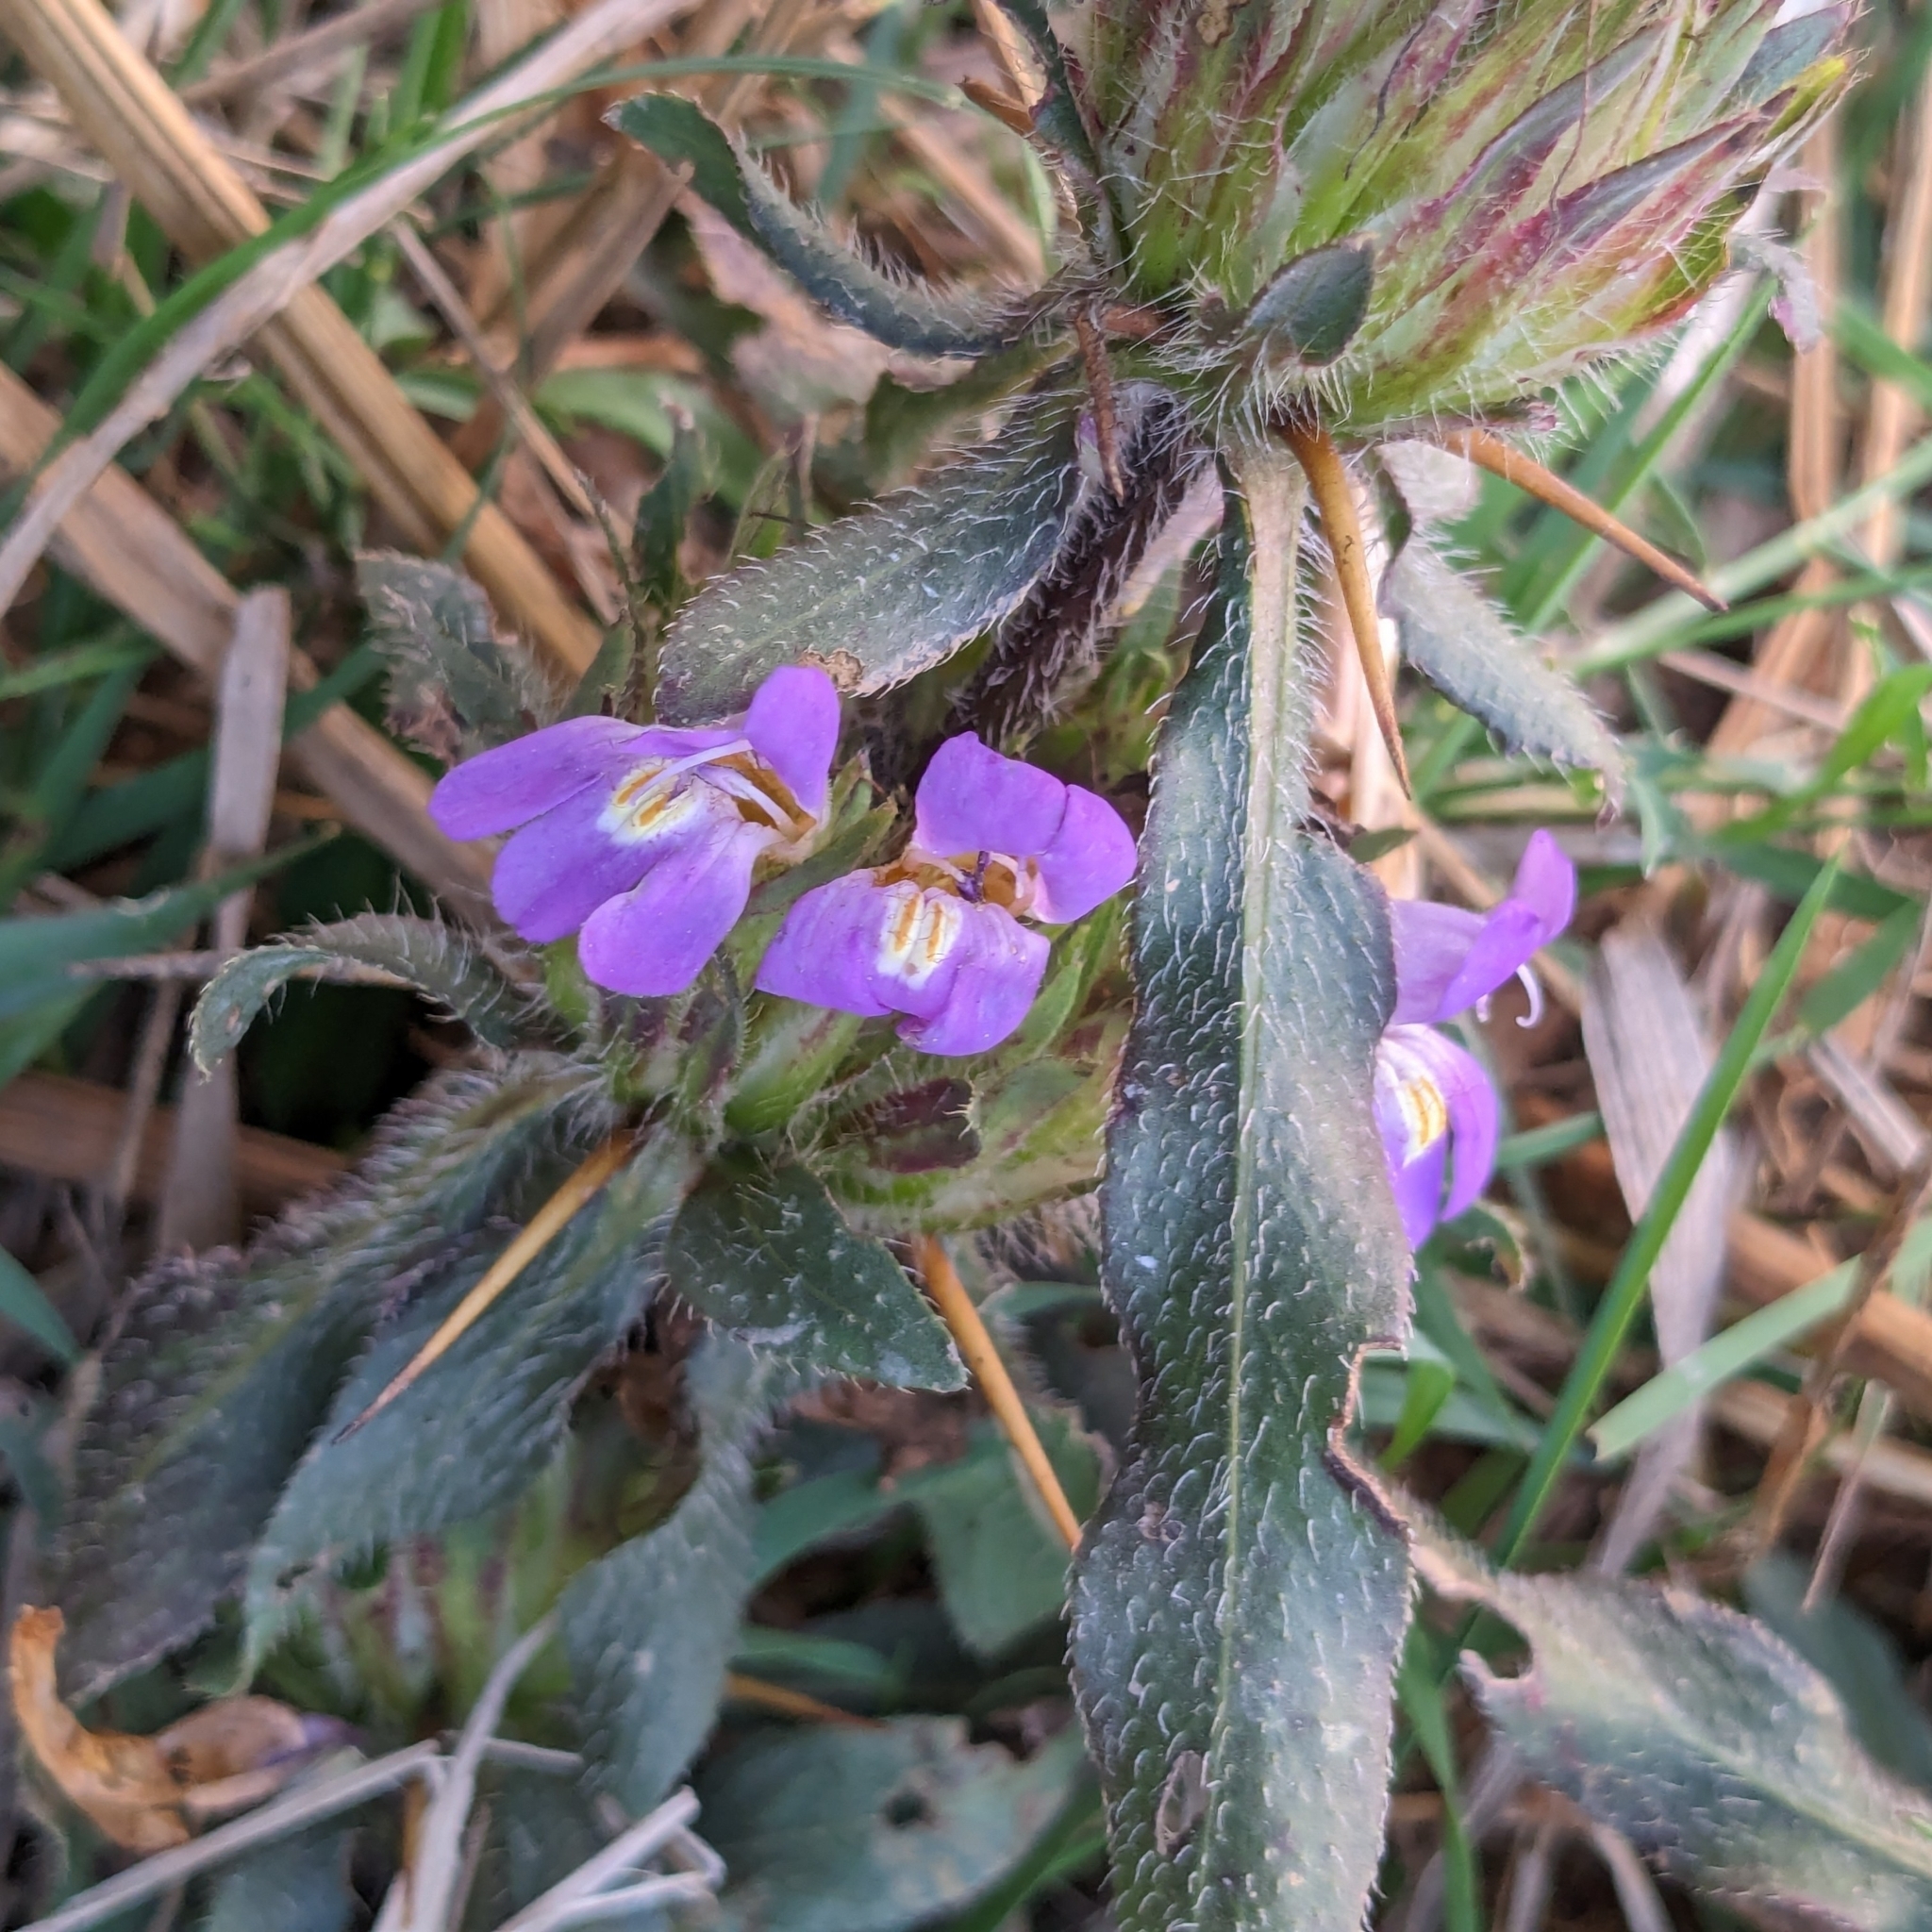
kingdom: Plantae
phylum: Tracheophyta
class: Magnoliopsida
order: Lamiales
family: Acanthaceae
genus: Hygrophila
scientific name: Hygrophila auriculata
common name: Hygrophila
